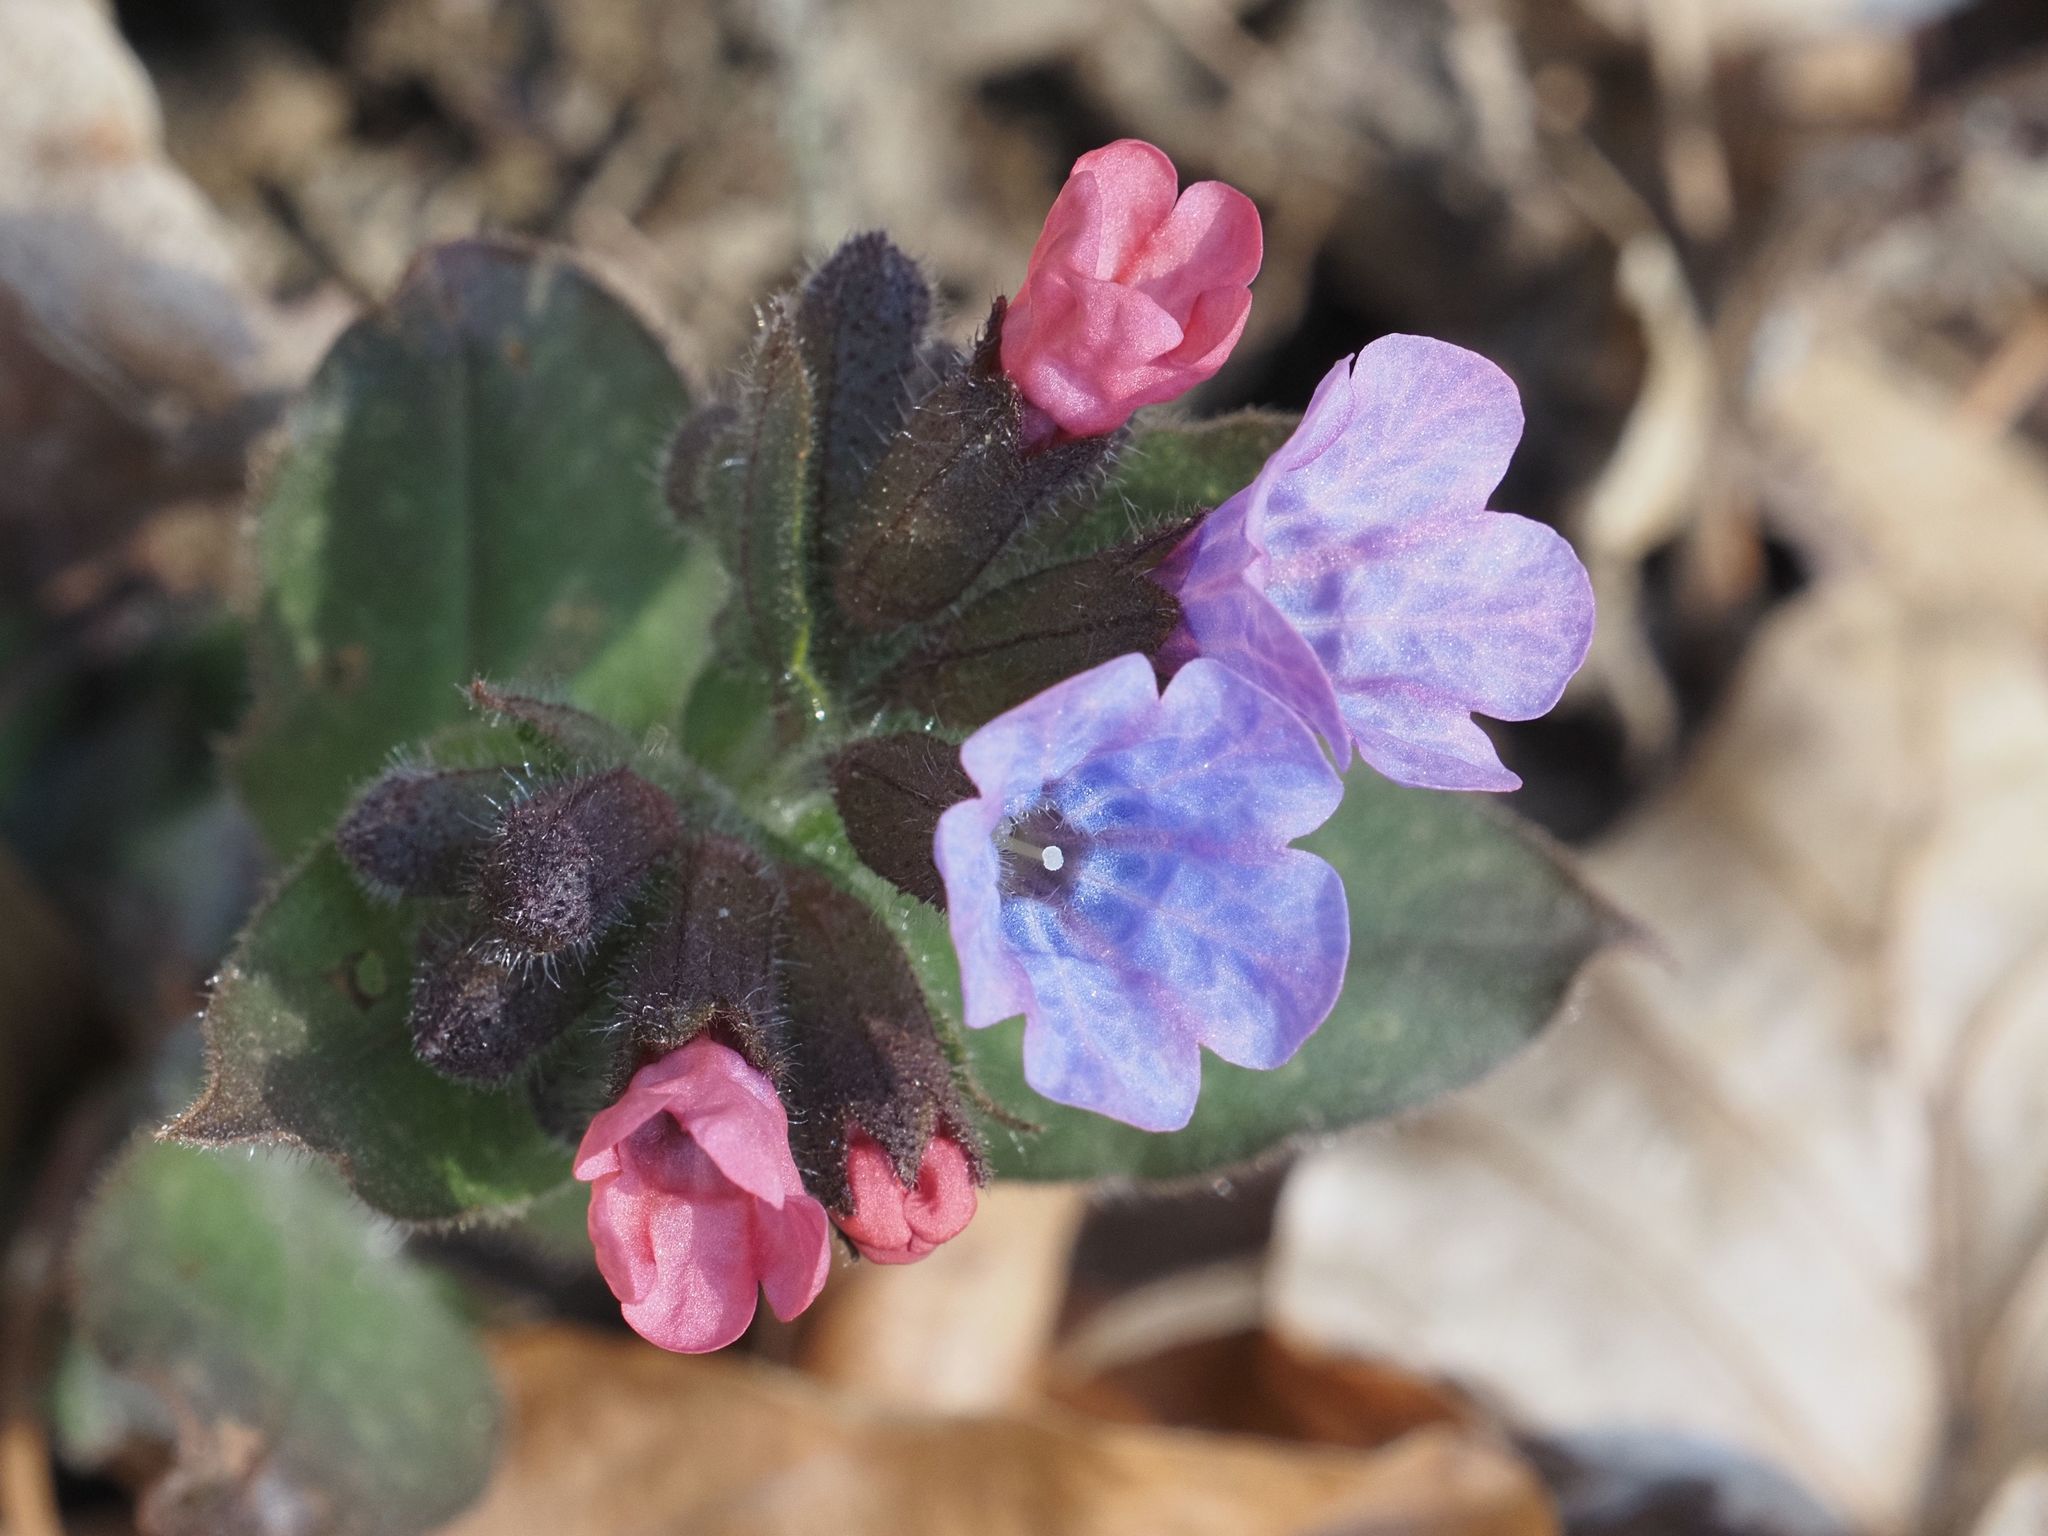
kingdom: Plantae
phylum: Tracheophyta
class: Magnoliopsida
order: Boraginales
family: Boraginaceae
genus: Pulmonaria
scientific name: Pulmonaria officinalis
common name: Lungwort
